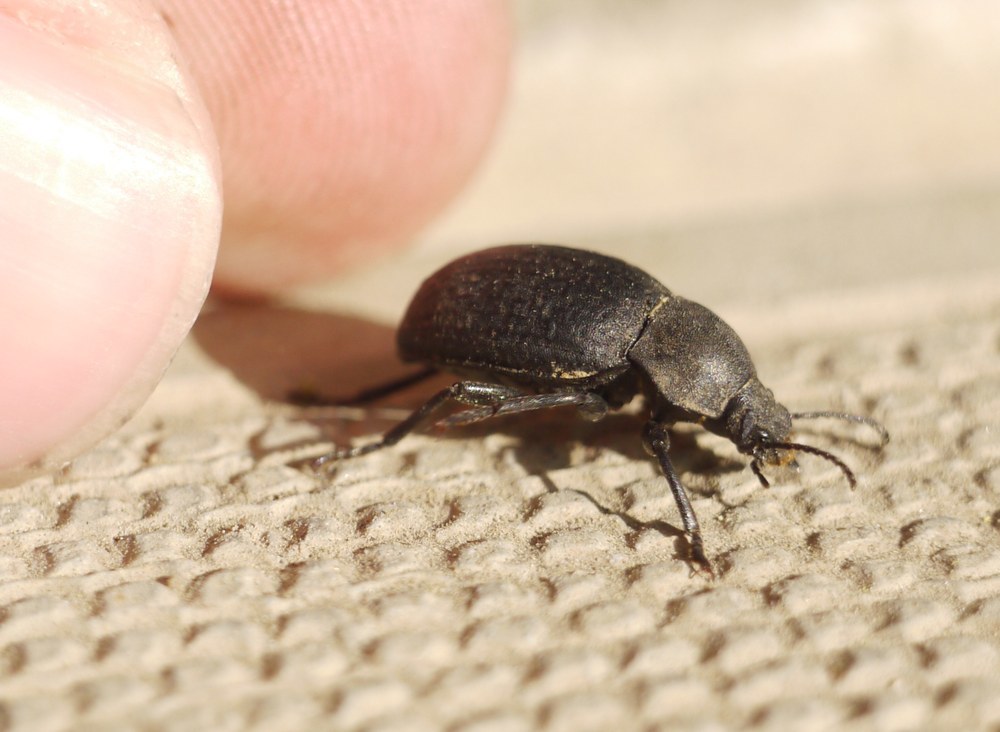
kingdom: Animalia
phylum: Arthropoda
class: Insecta
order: Coleoptera
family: Tenebrionidae
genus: Euboeus
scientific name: Euboeus
